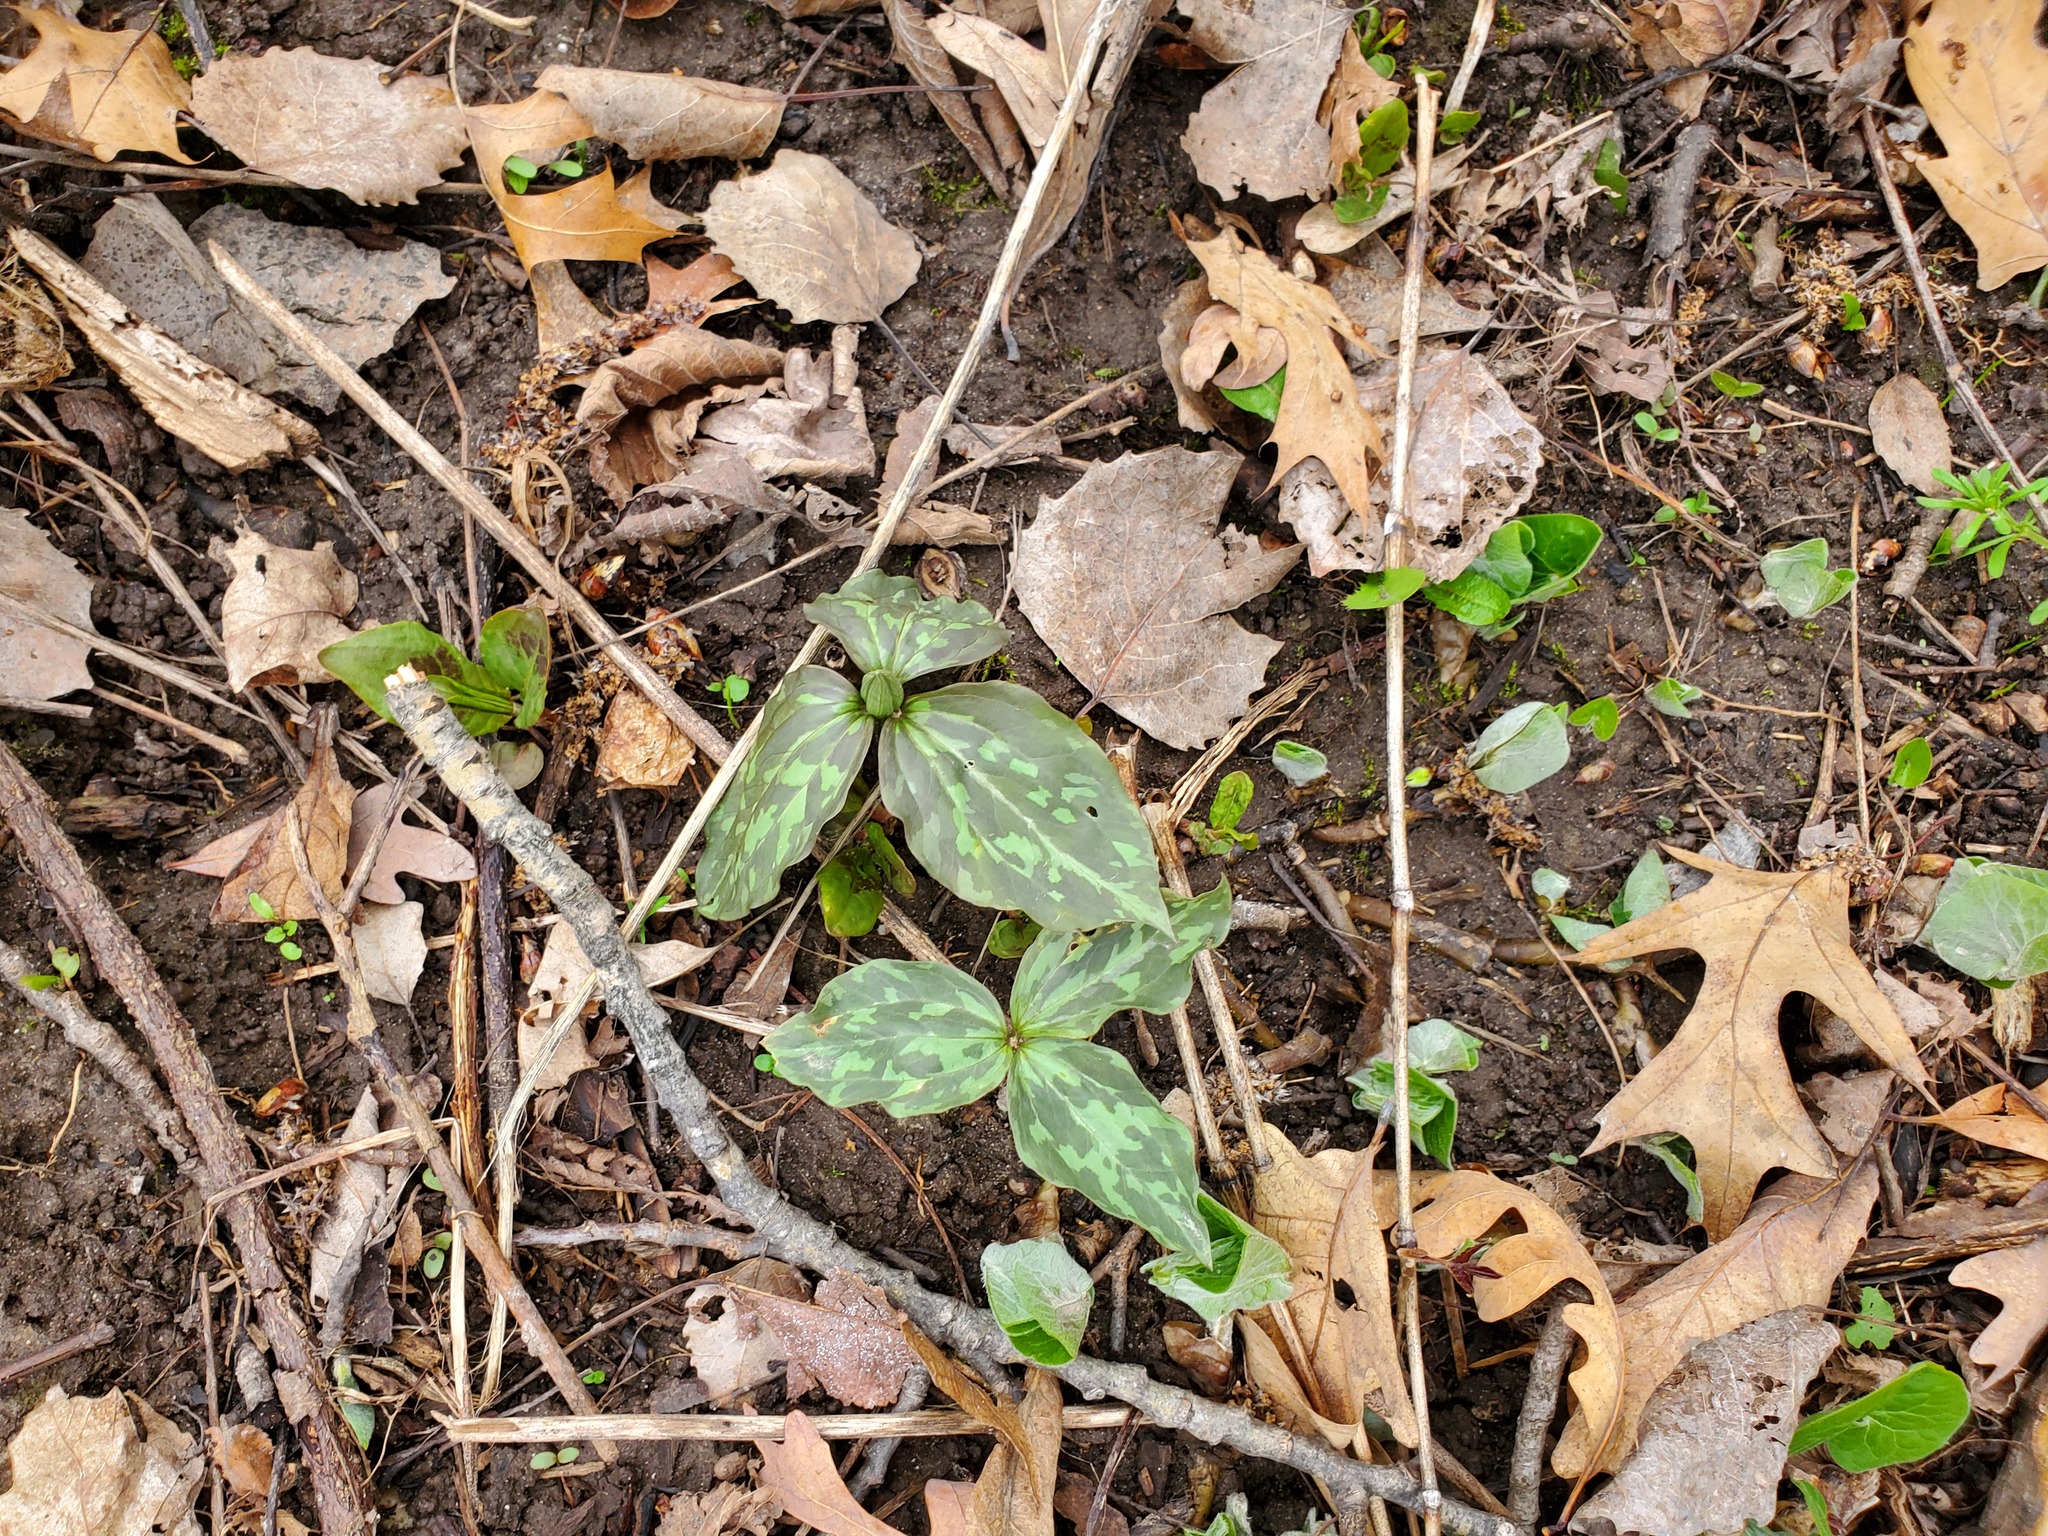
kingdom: Plantae
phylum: Tracheophyta
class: Liliopsida
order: Liliales
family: Melanthiaceae
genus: Trillium
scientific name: Trillium recurvatum
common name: Bloody butcher
